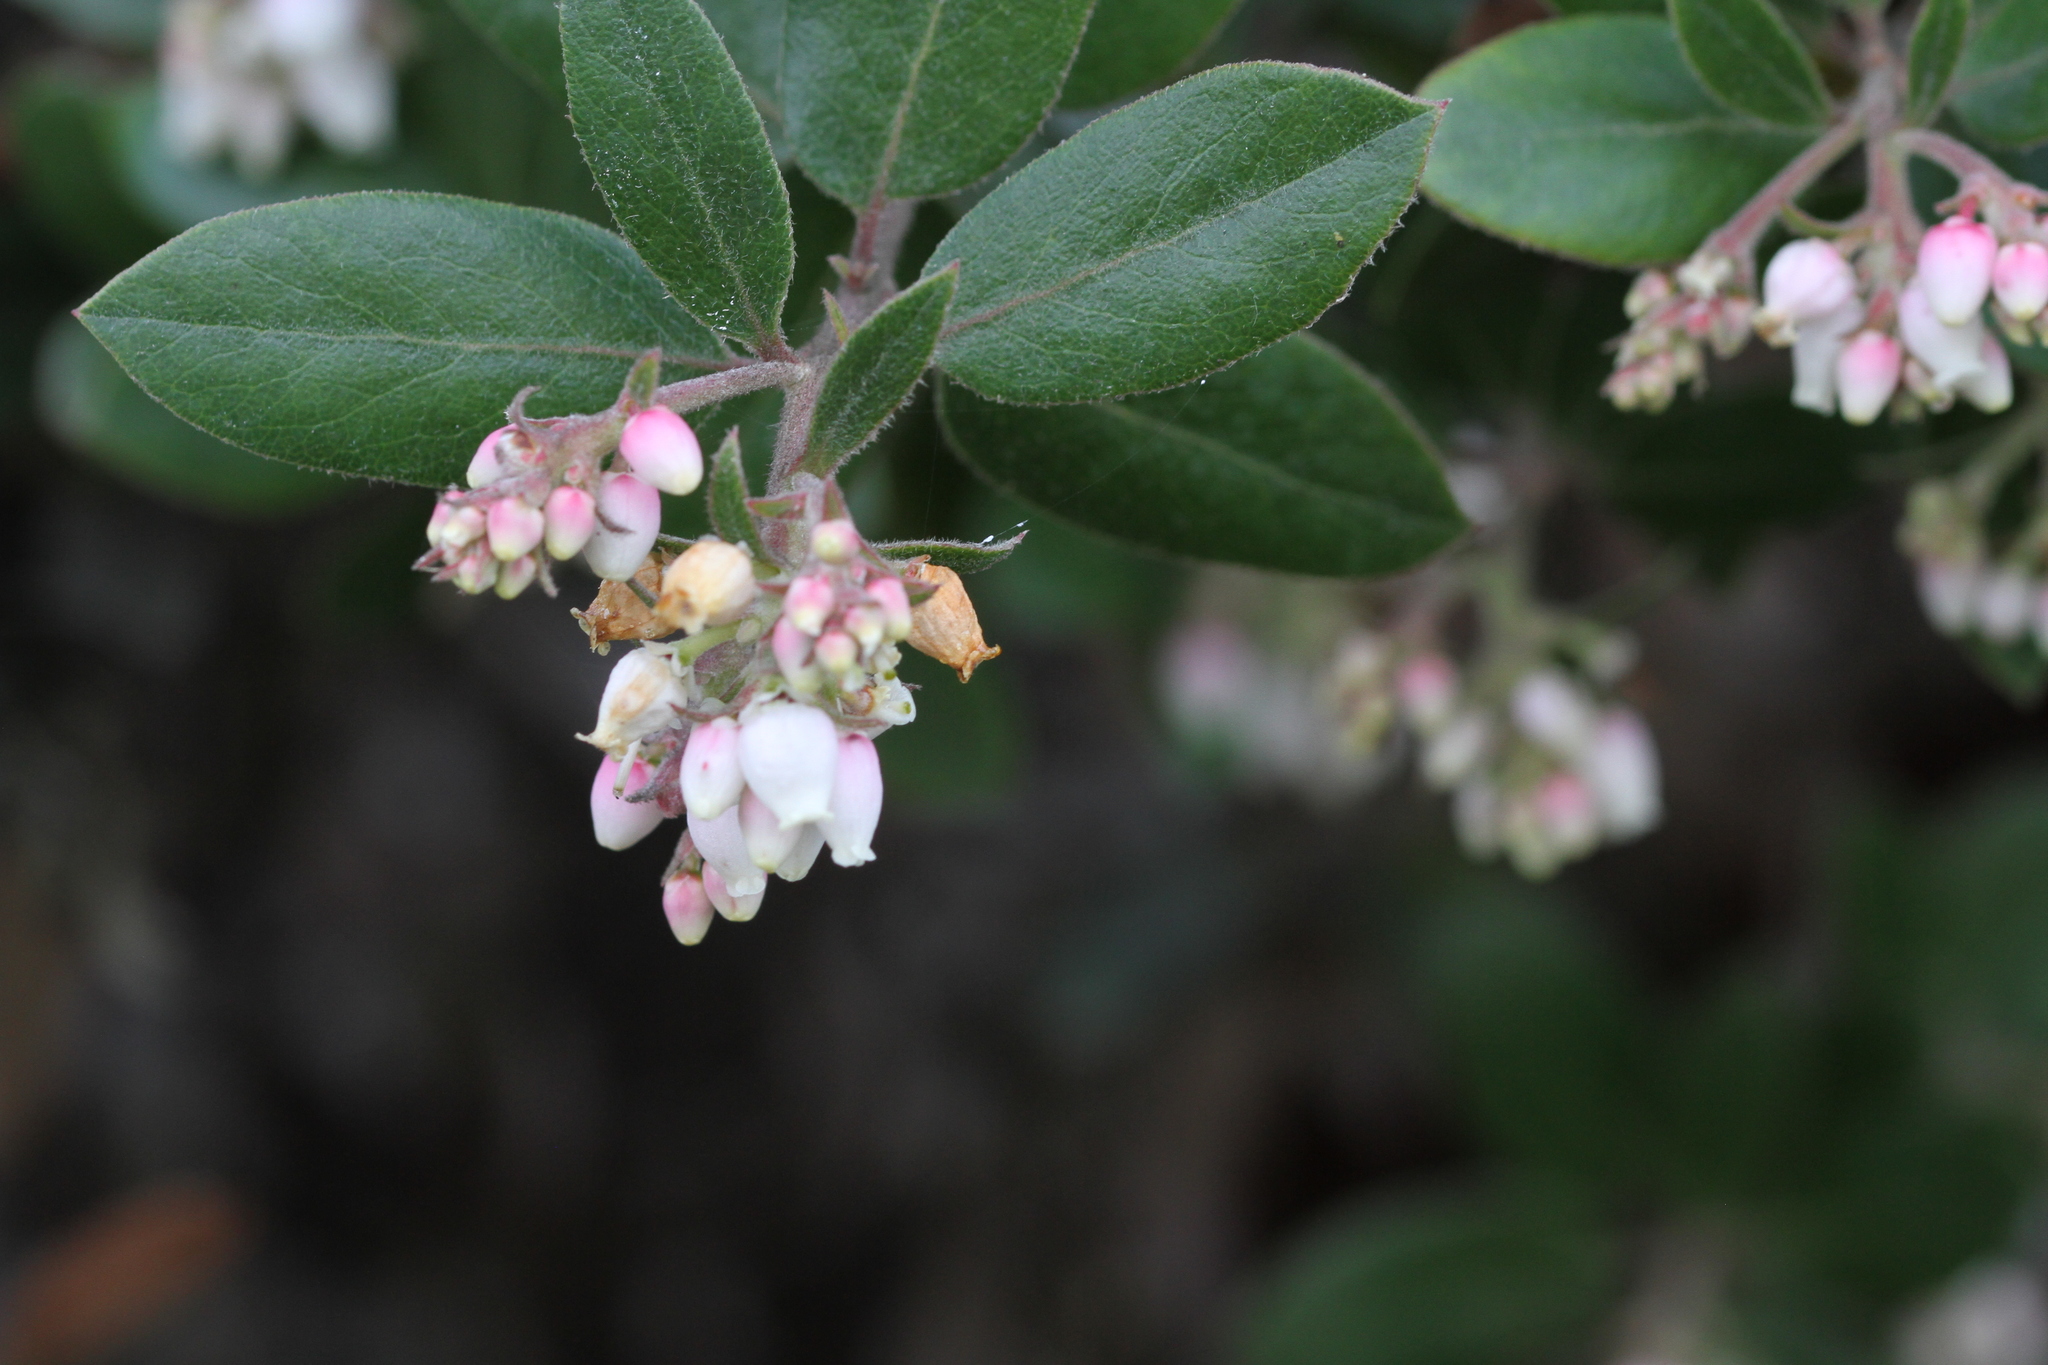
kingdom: Plantae
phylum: Tracheophyta
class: Magnoliopsida
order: Ericales
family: Ericaceae
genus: Arctostaphylos
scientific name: Arctostaphylos tomentosa
